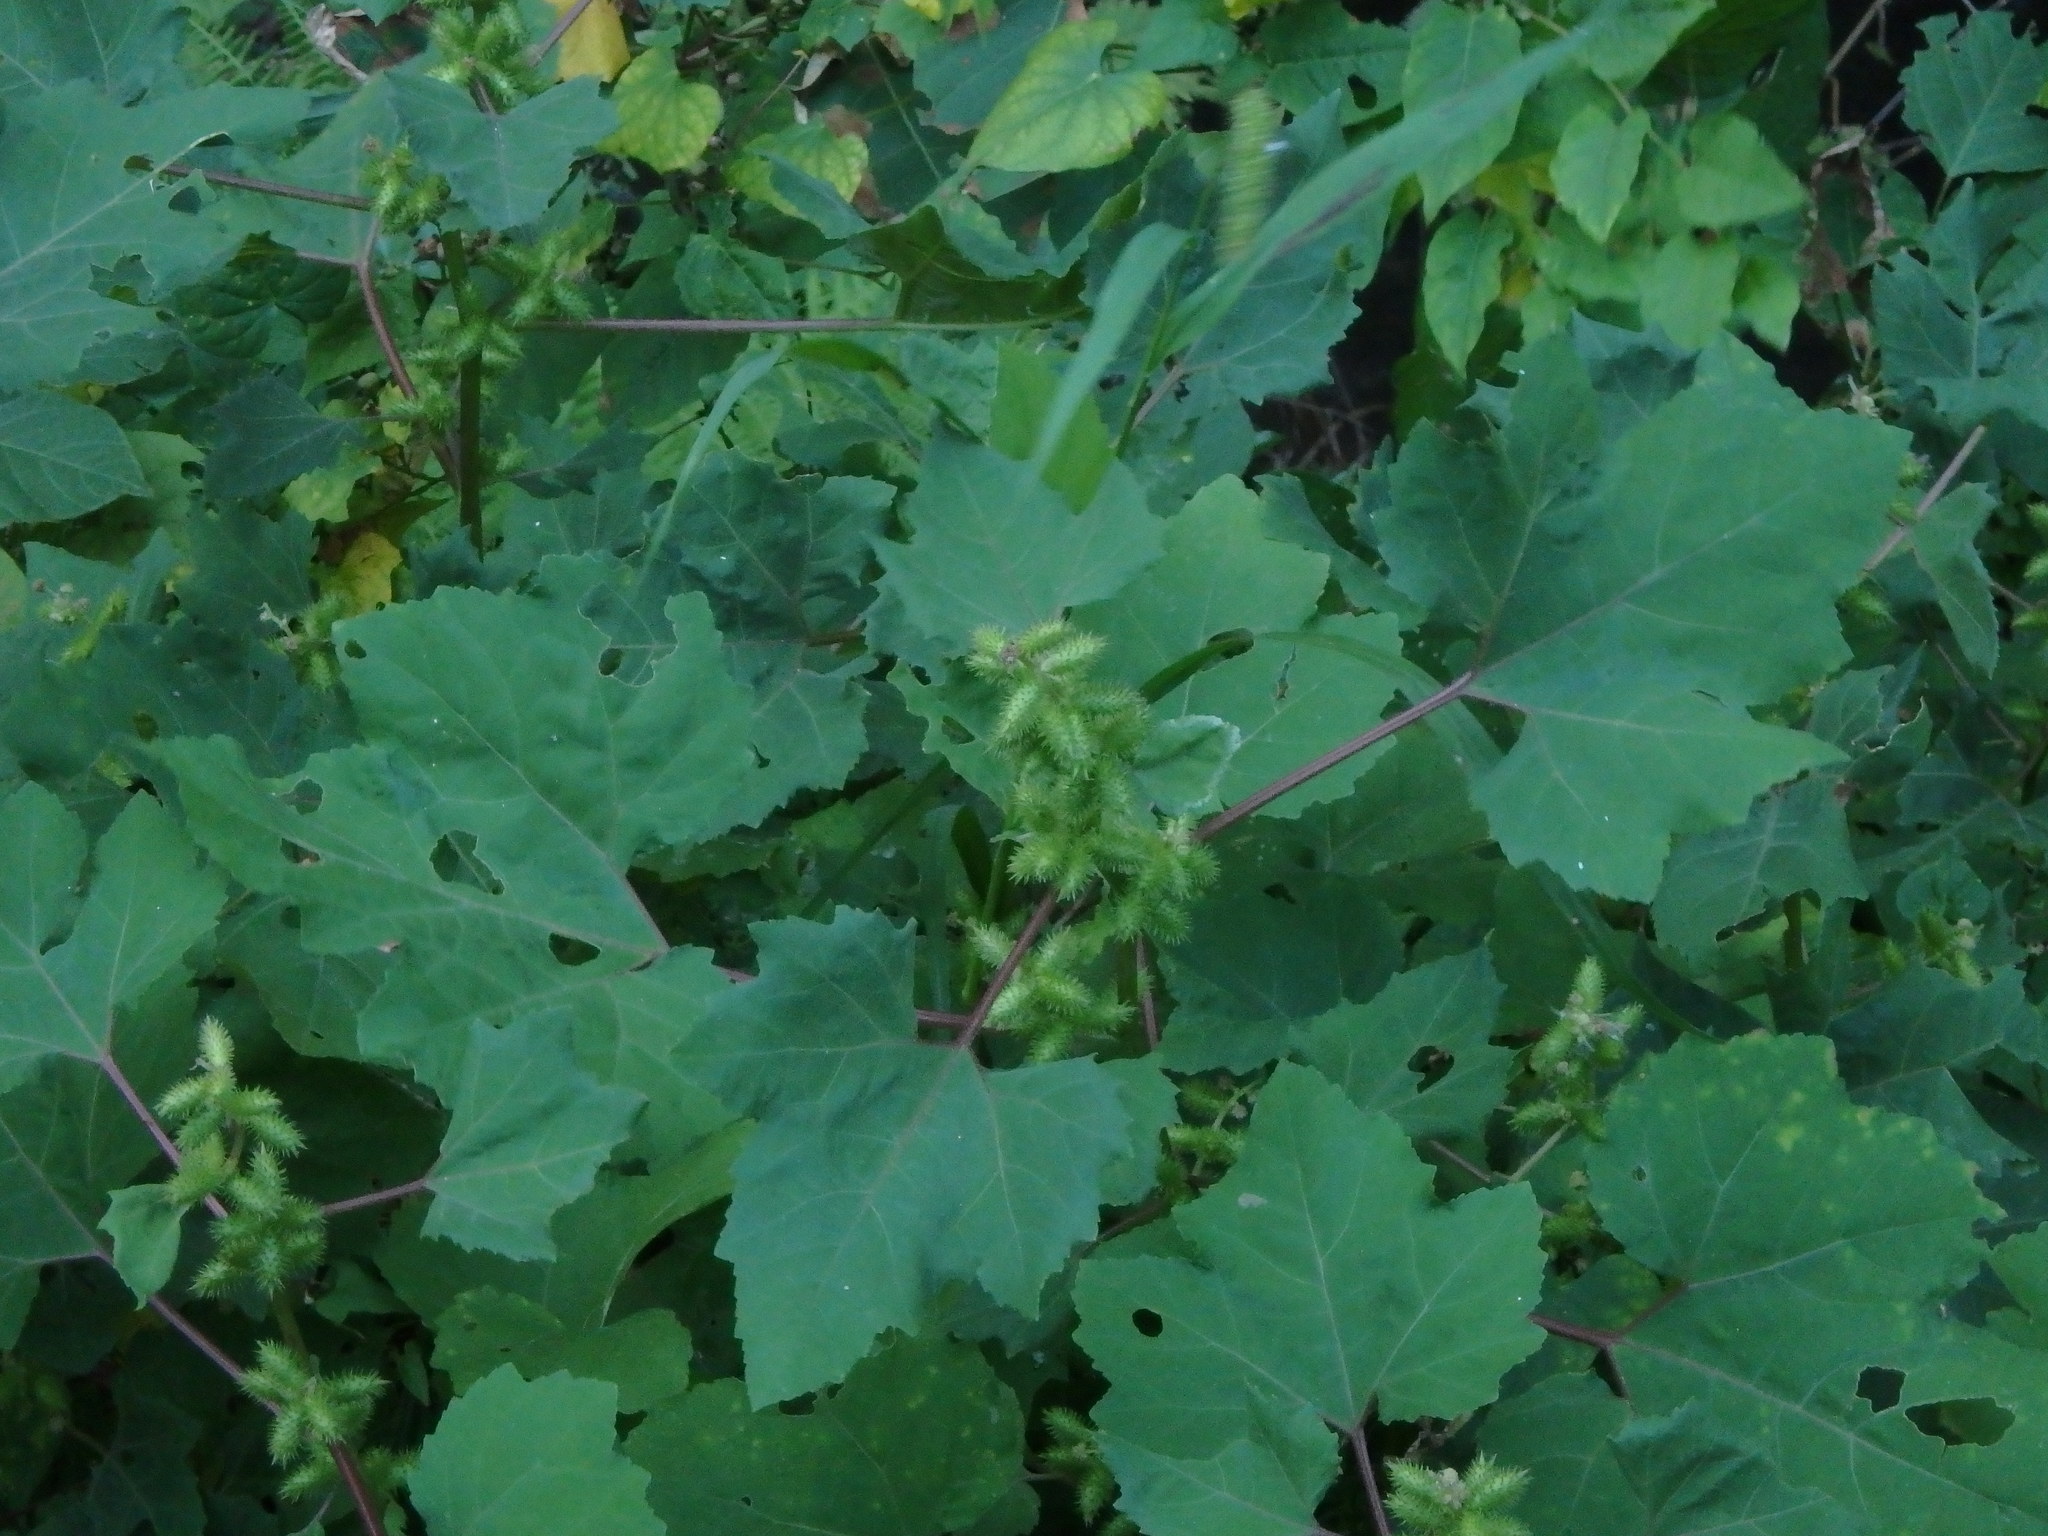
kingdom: Plantae
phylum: Tracheophyta
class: Magnoliopsida
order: Asterales
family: Asteraceae
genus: Xanthium
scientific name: Xanthium strumarium
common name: Rough cocklebur
